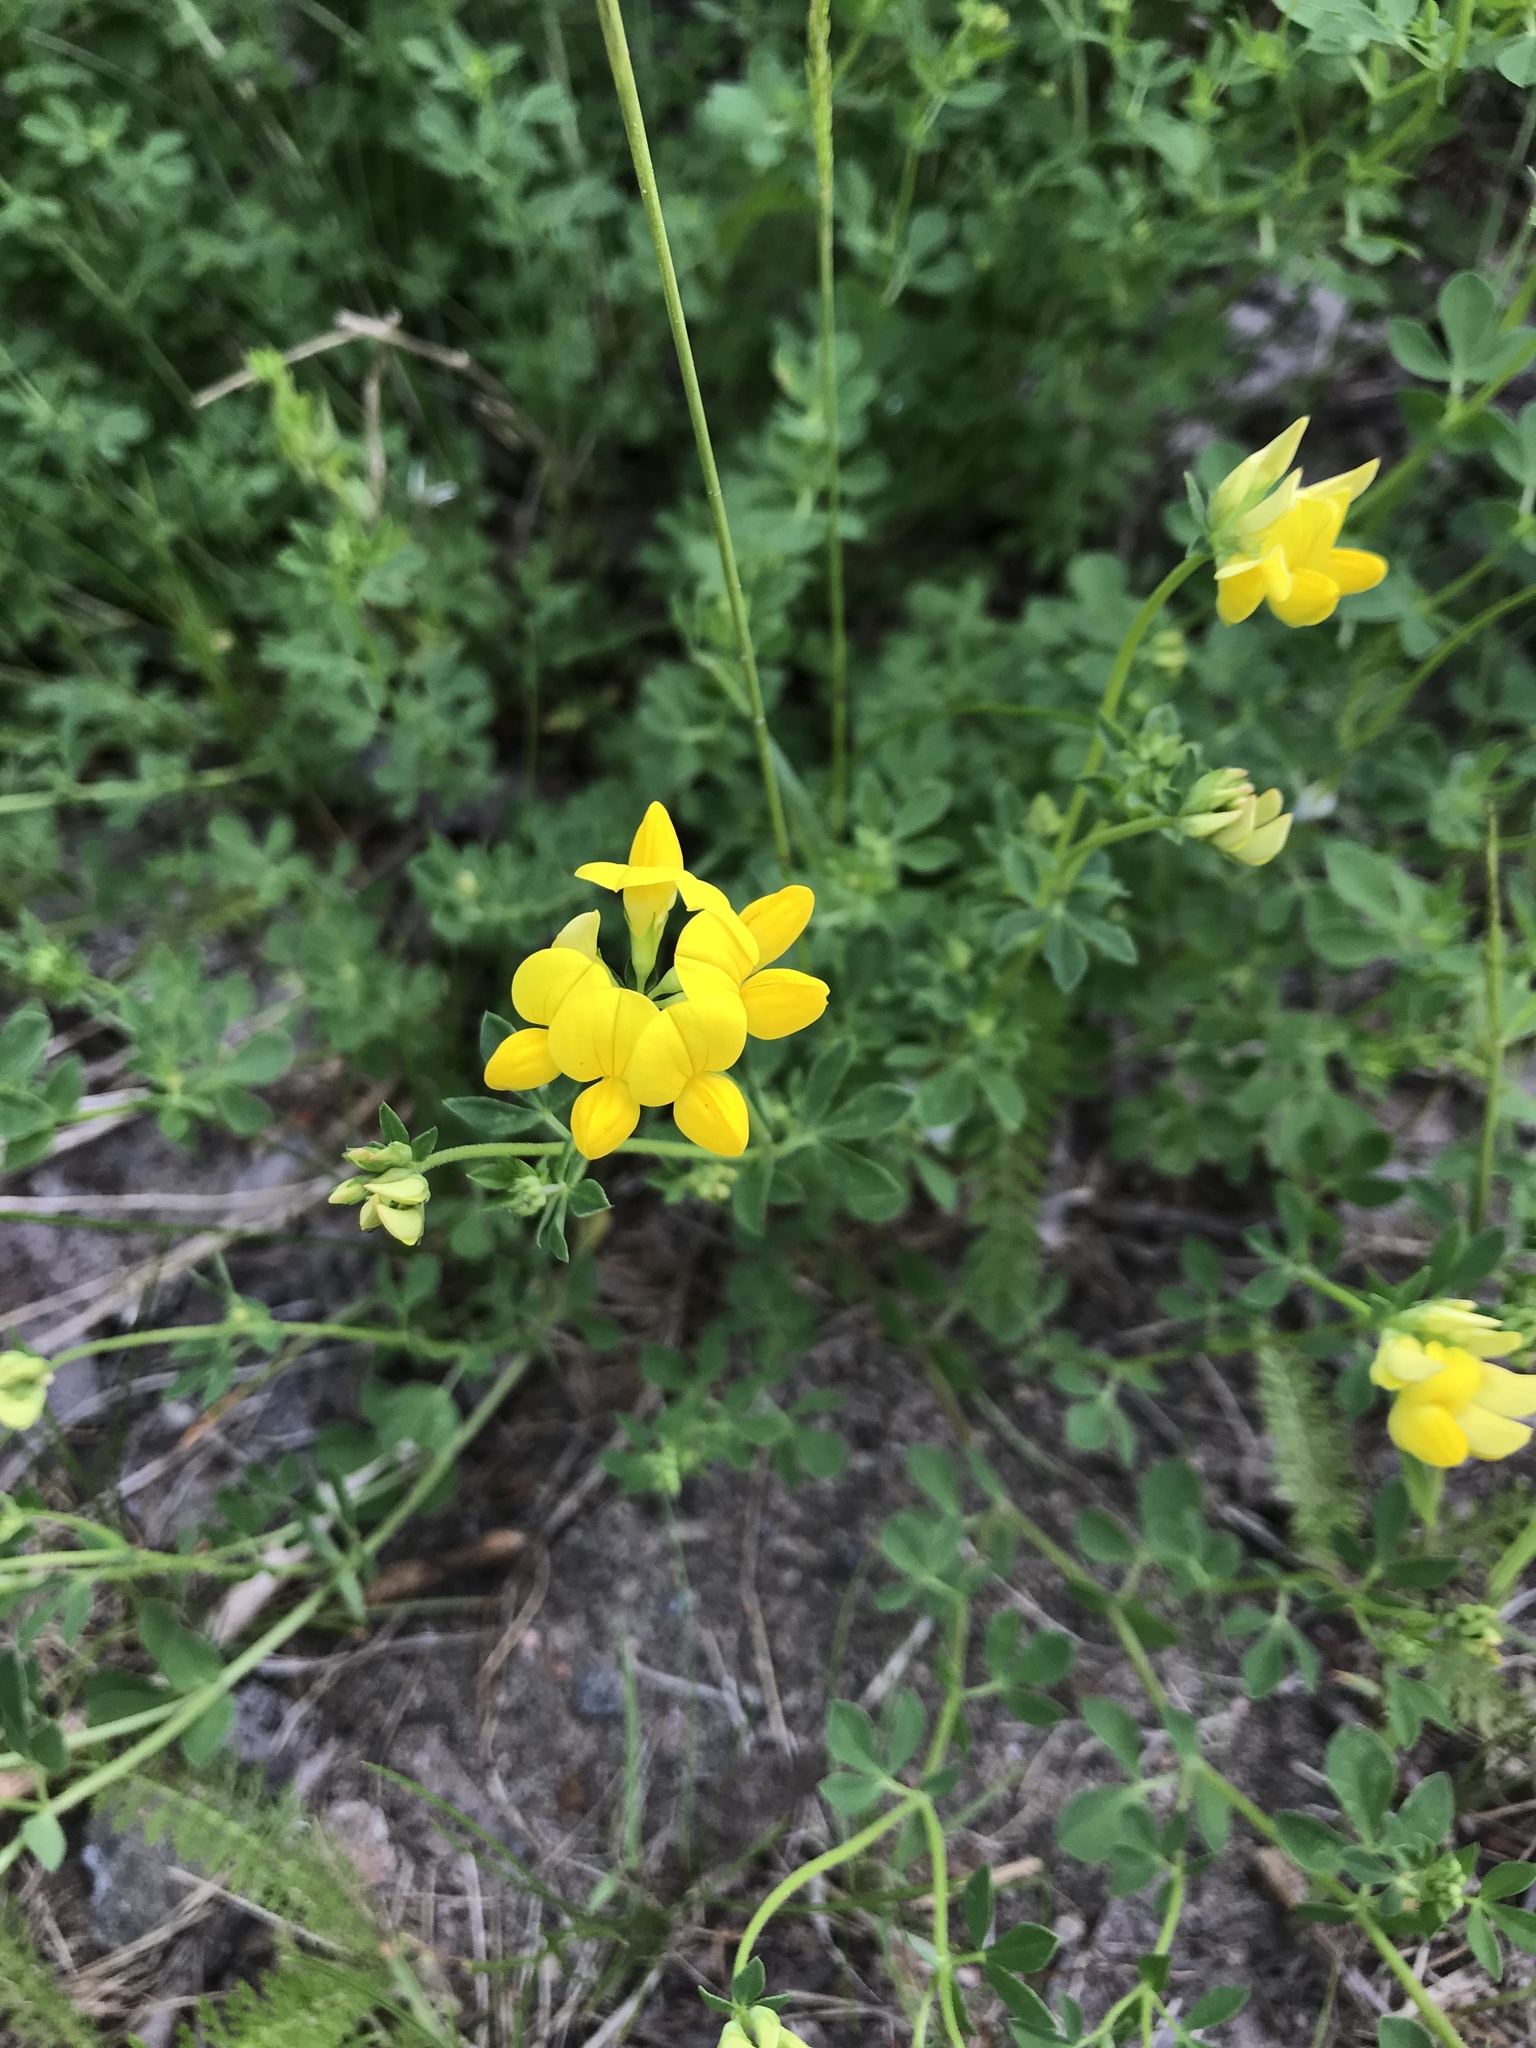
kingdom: Plantae
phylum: Tracheophyta
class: Magnoliopsida
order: Fabales
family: Fabaceae
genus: Lotus
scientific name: Lotus corniculatus
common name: Common bird's-foot-trefoil
